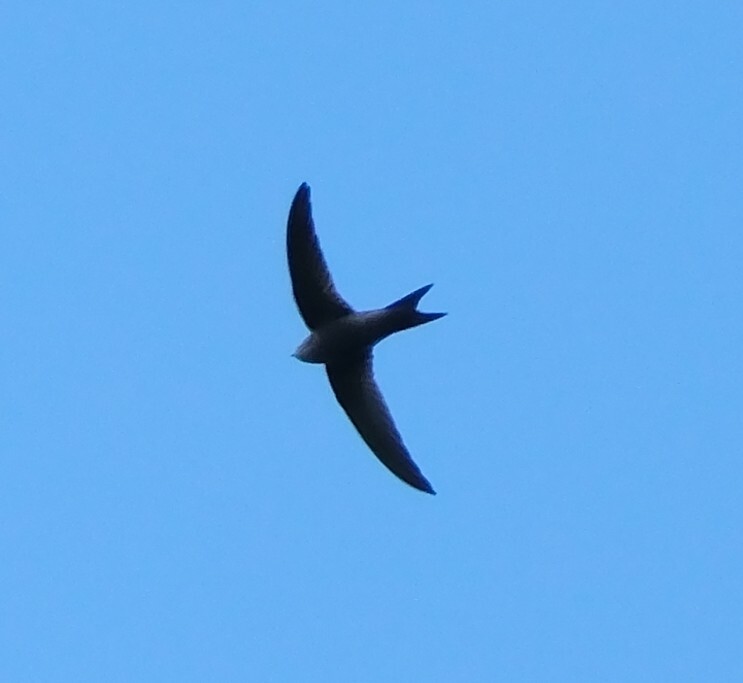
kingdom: Animalia
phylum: Chordata
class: Aves
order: Apodiformes
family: Apodidae
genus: Apus
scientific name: Apus unicolor
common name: Plain swift
